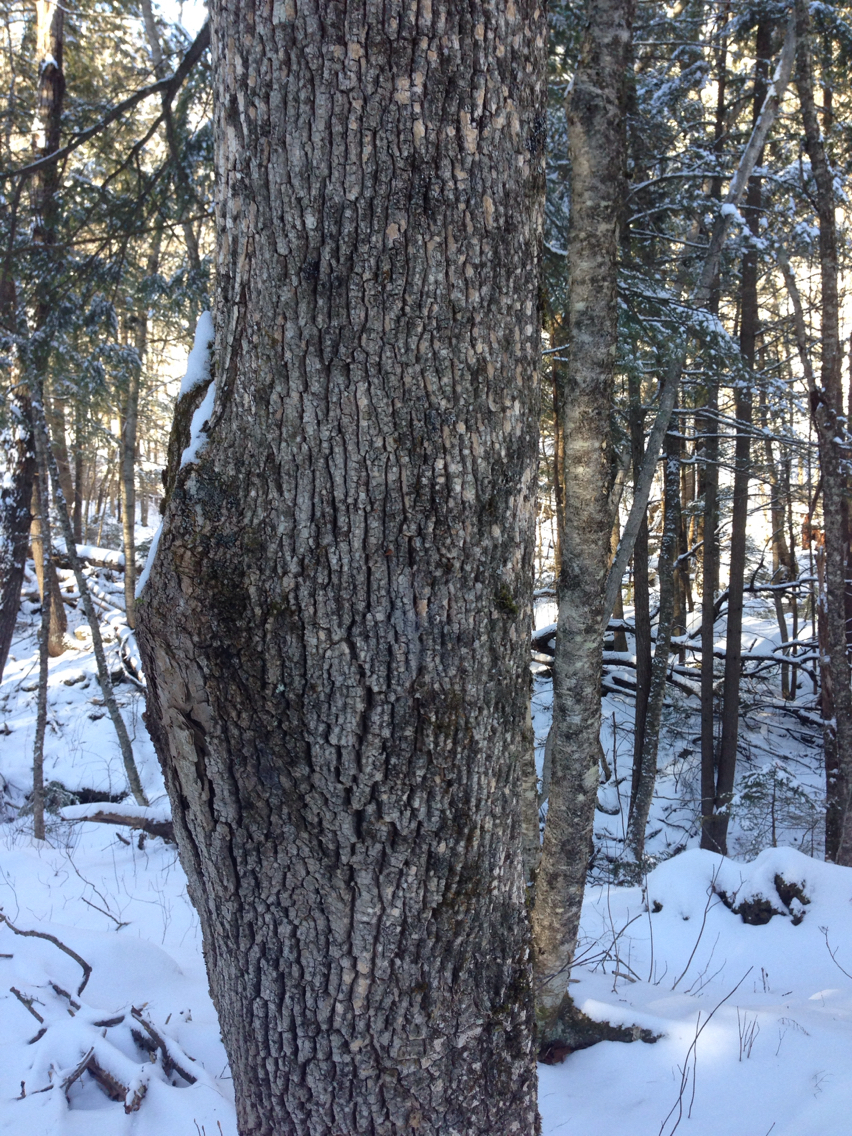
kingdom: Plantae
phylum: Tracheophyta
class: Magnoliopsida
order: Lamiales
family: Oleaceae
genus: Fraxinus
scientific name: Fraxinus americana
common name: White ash
